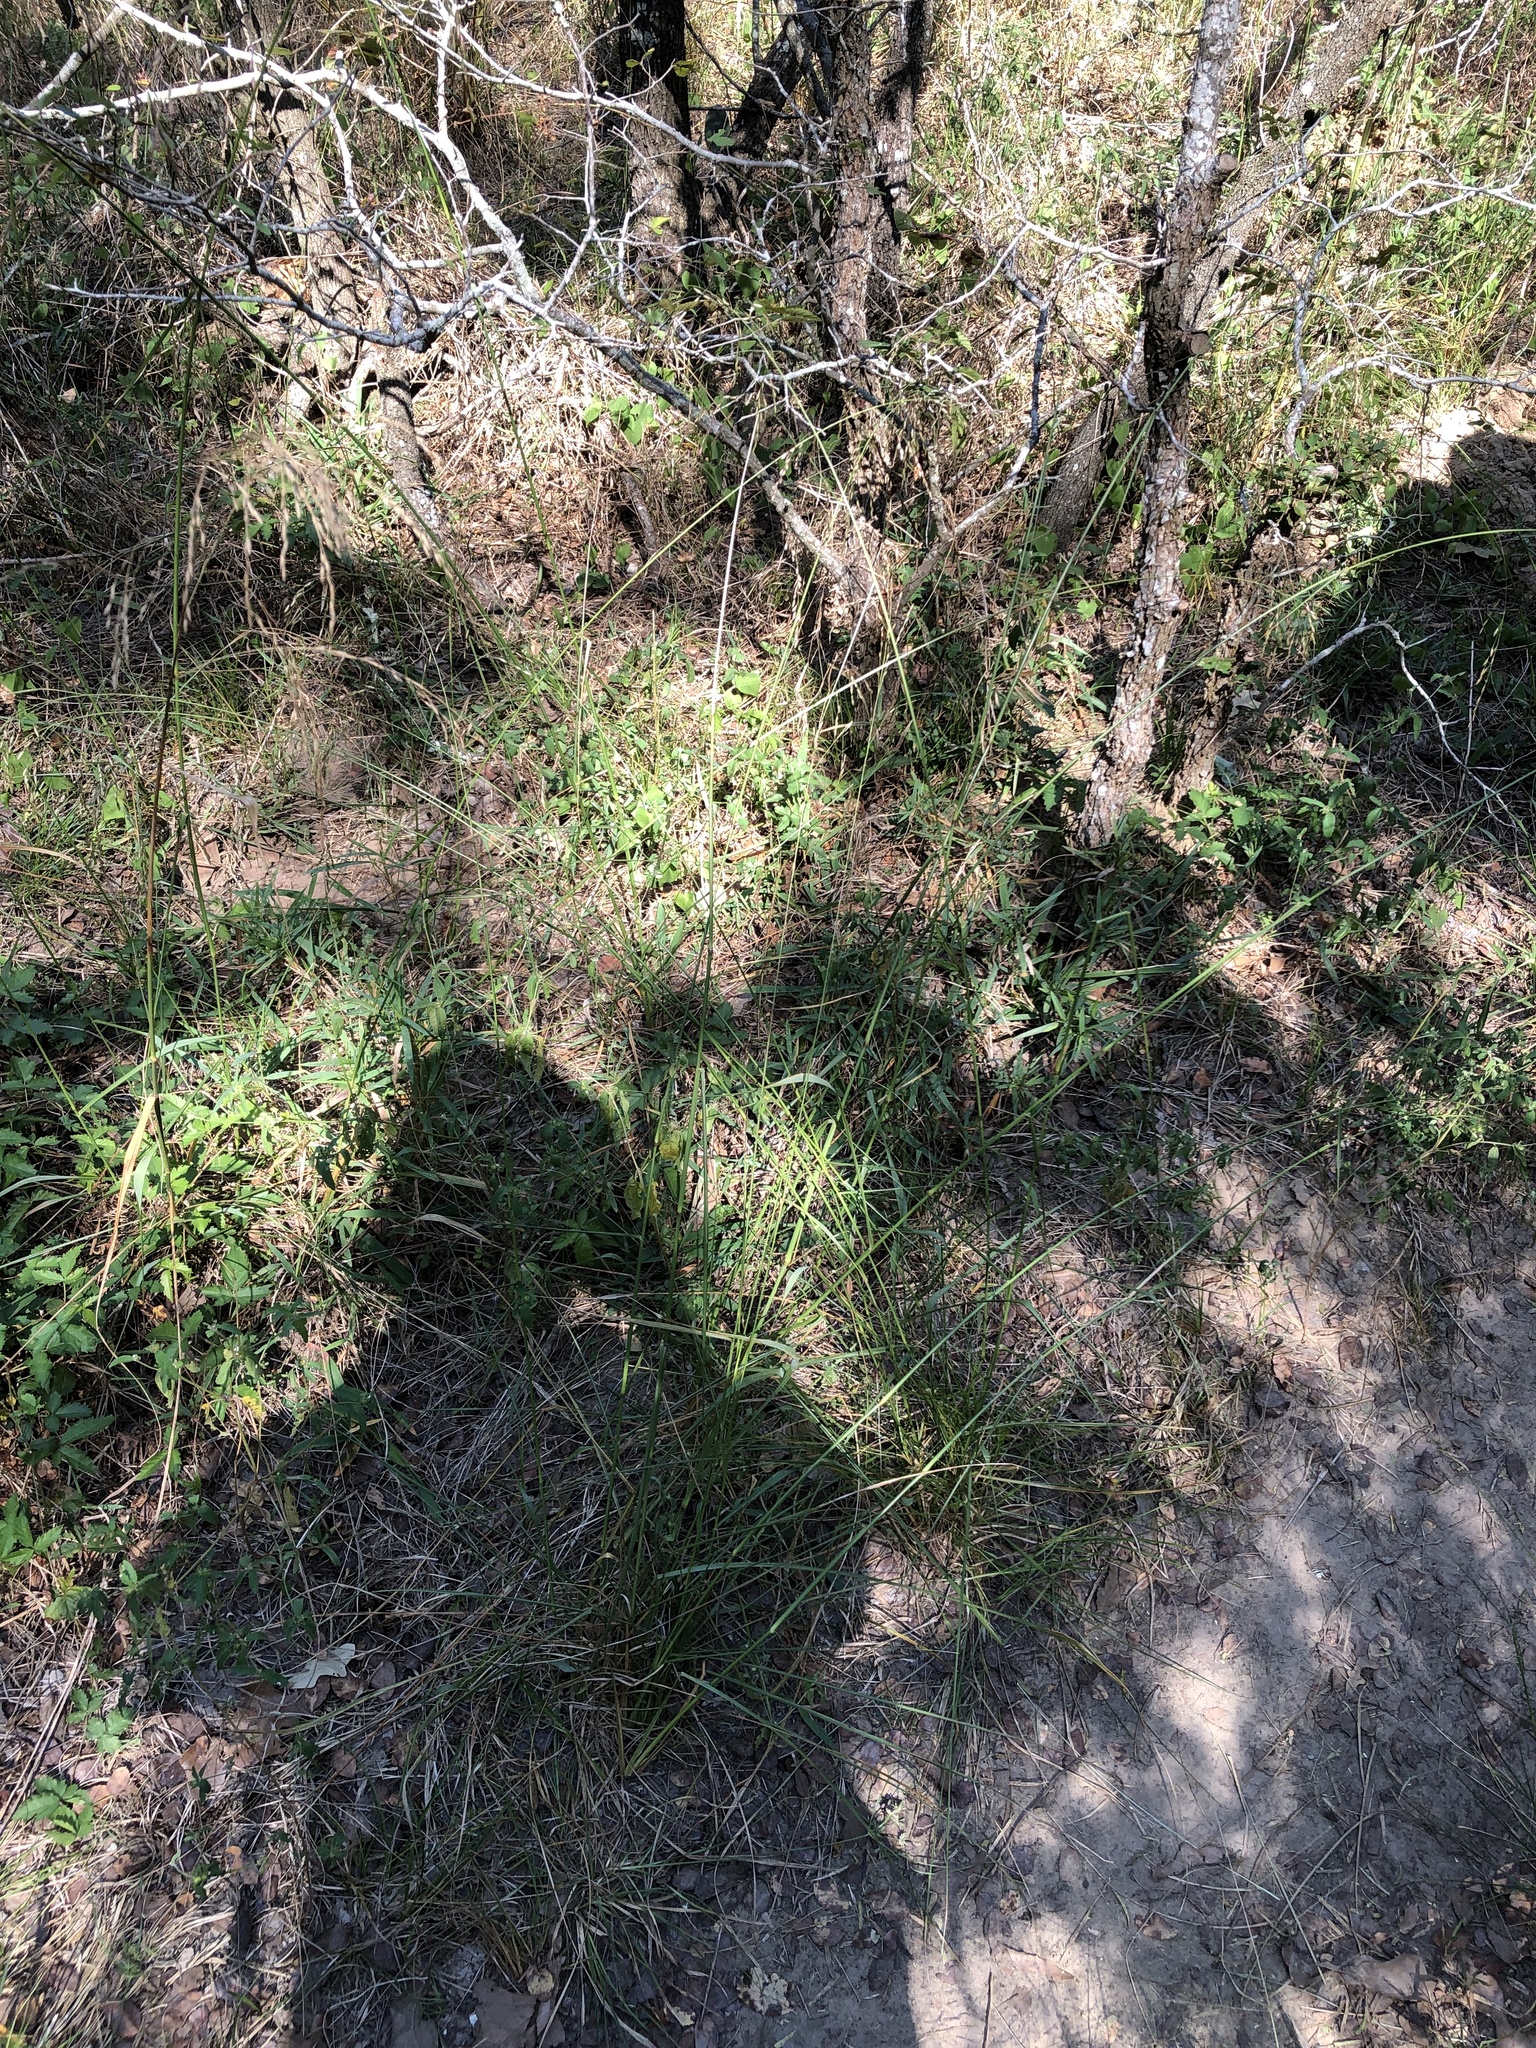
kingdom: Plantae
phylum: Tracheophyta
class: Liliopsida
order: Poales
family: Poaceae
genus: Tridens
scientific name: Tridens flavus
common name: Purpletop
